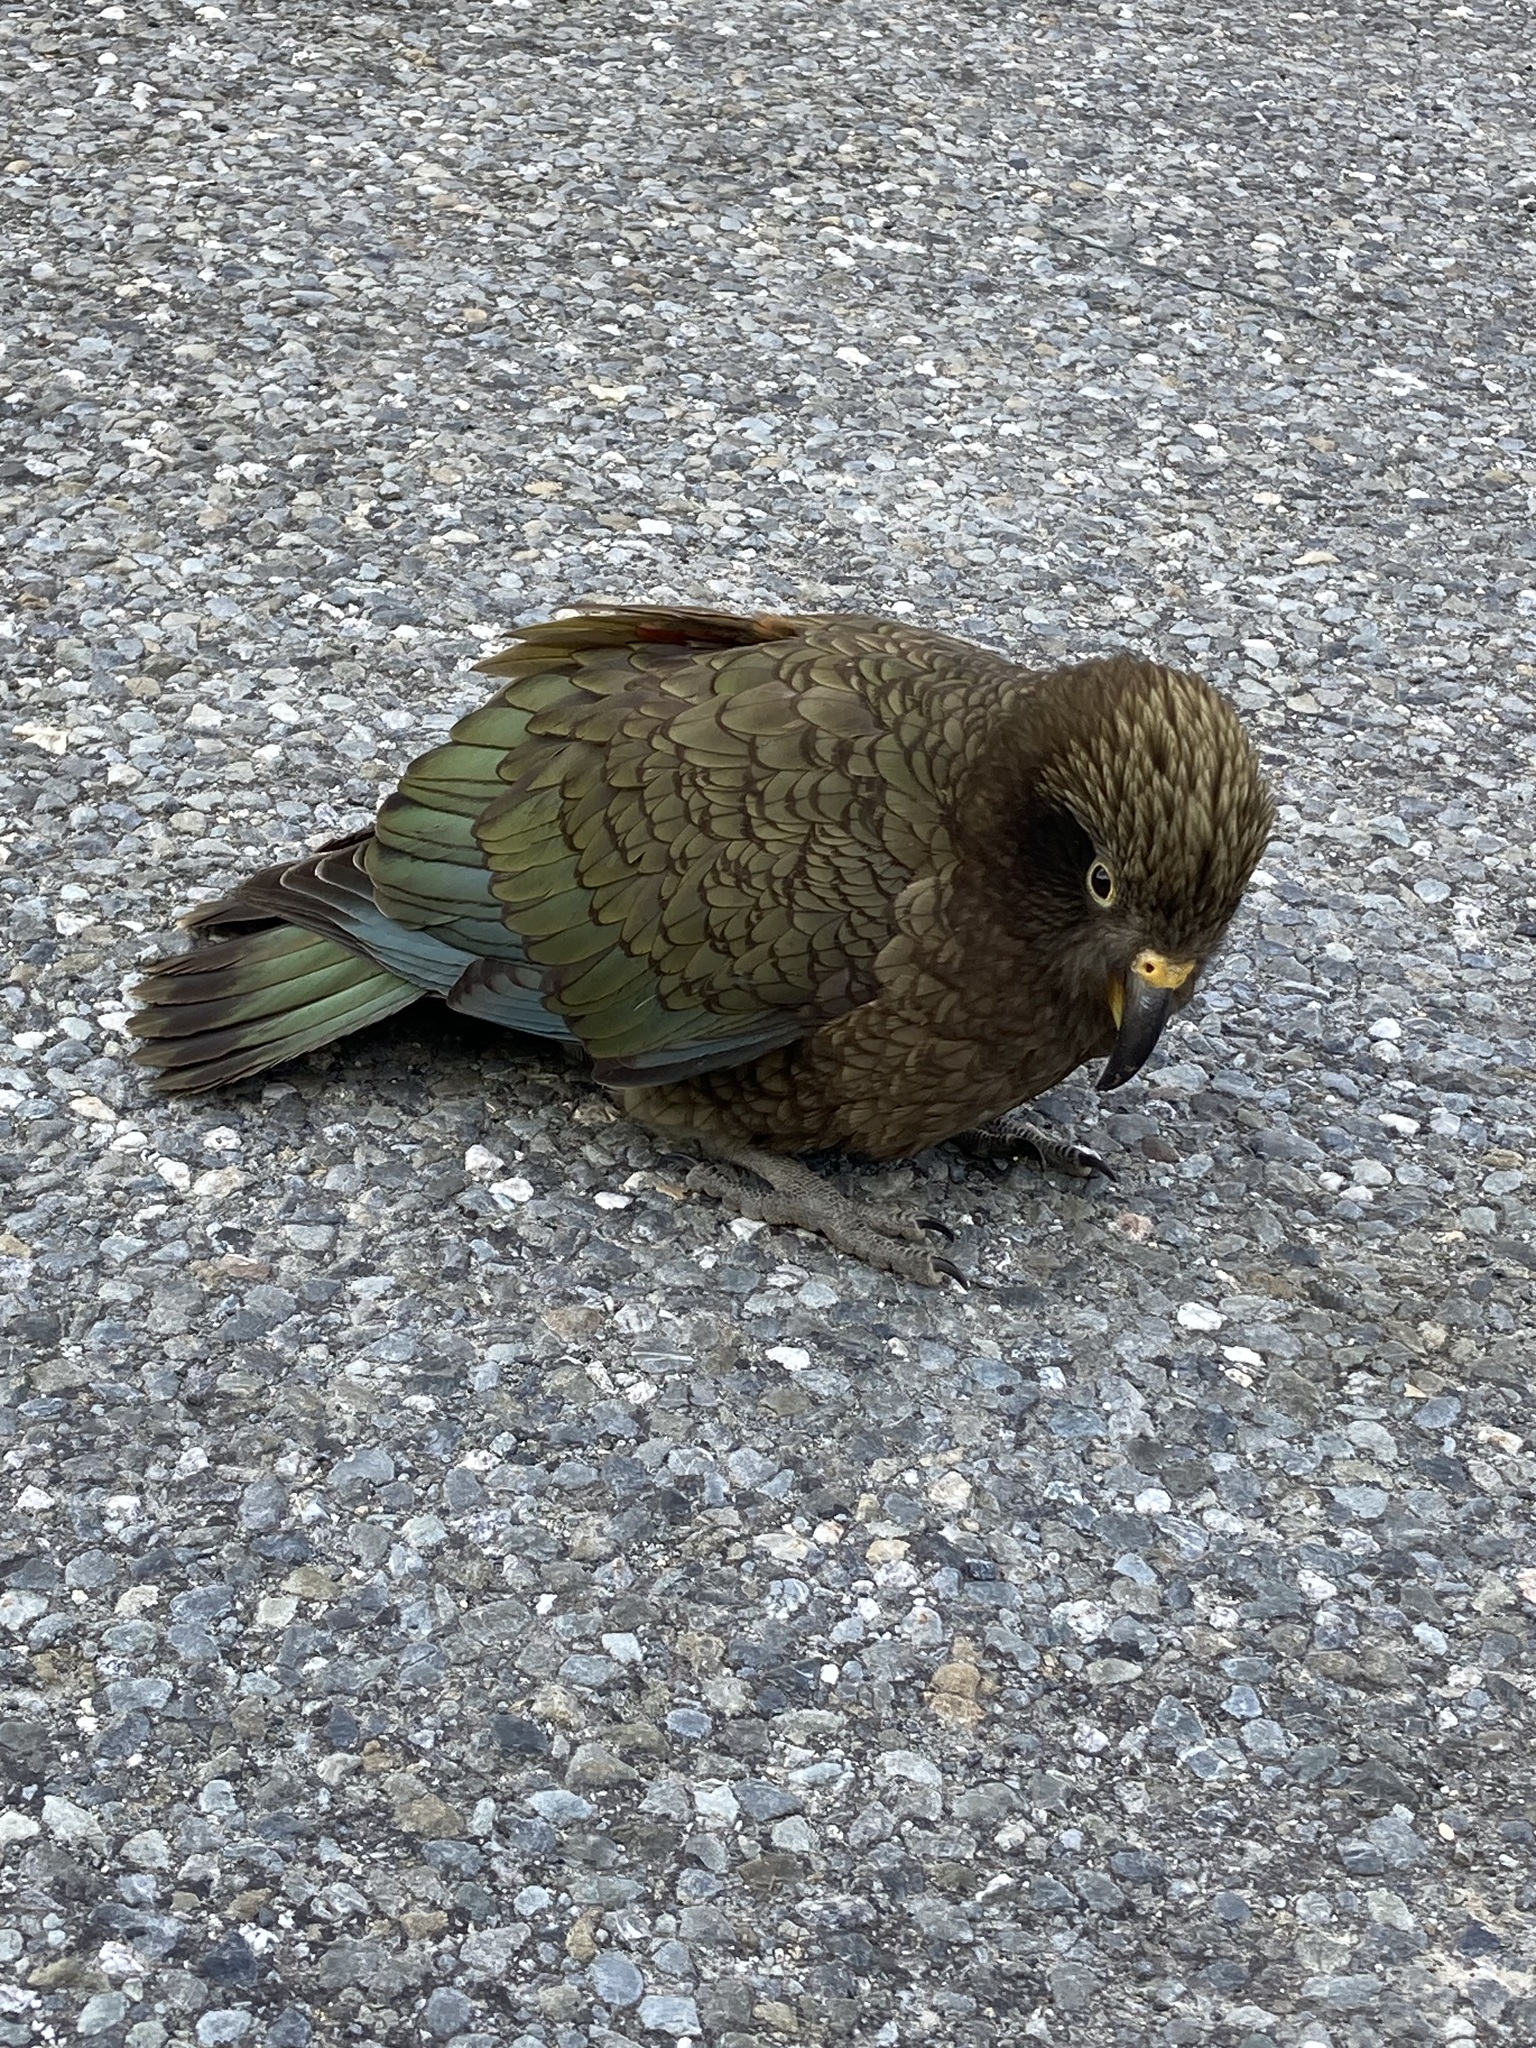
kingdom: Animalia
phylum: Chordata
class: Aves
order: Psittaciformes
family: Psittacidae
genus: Nestor
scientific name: Nestor notabilis
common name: Kea
